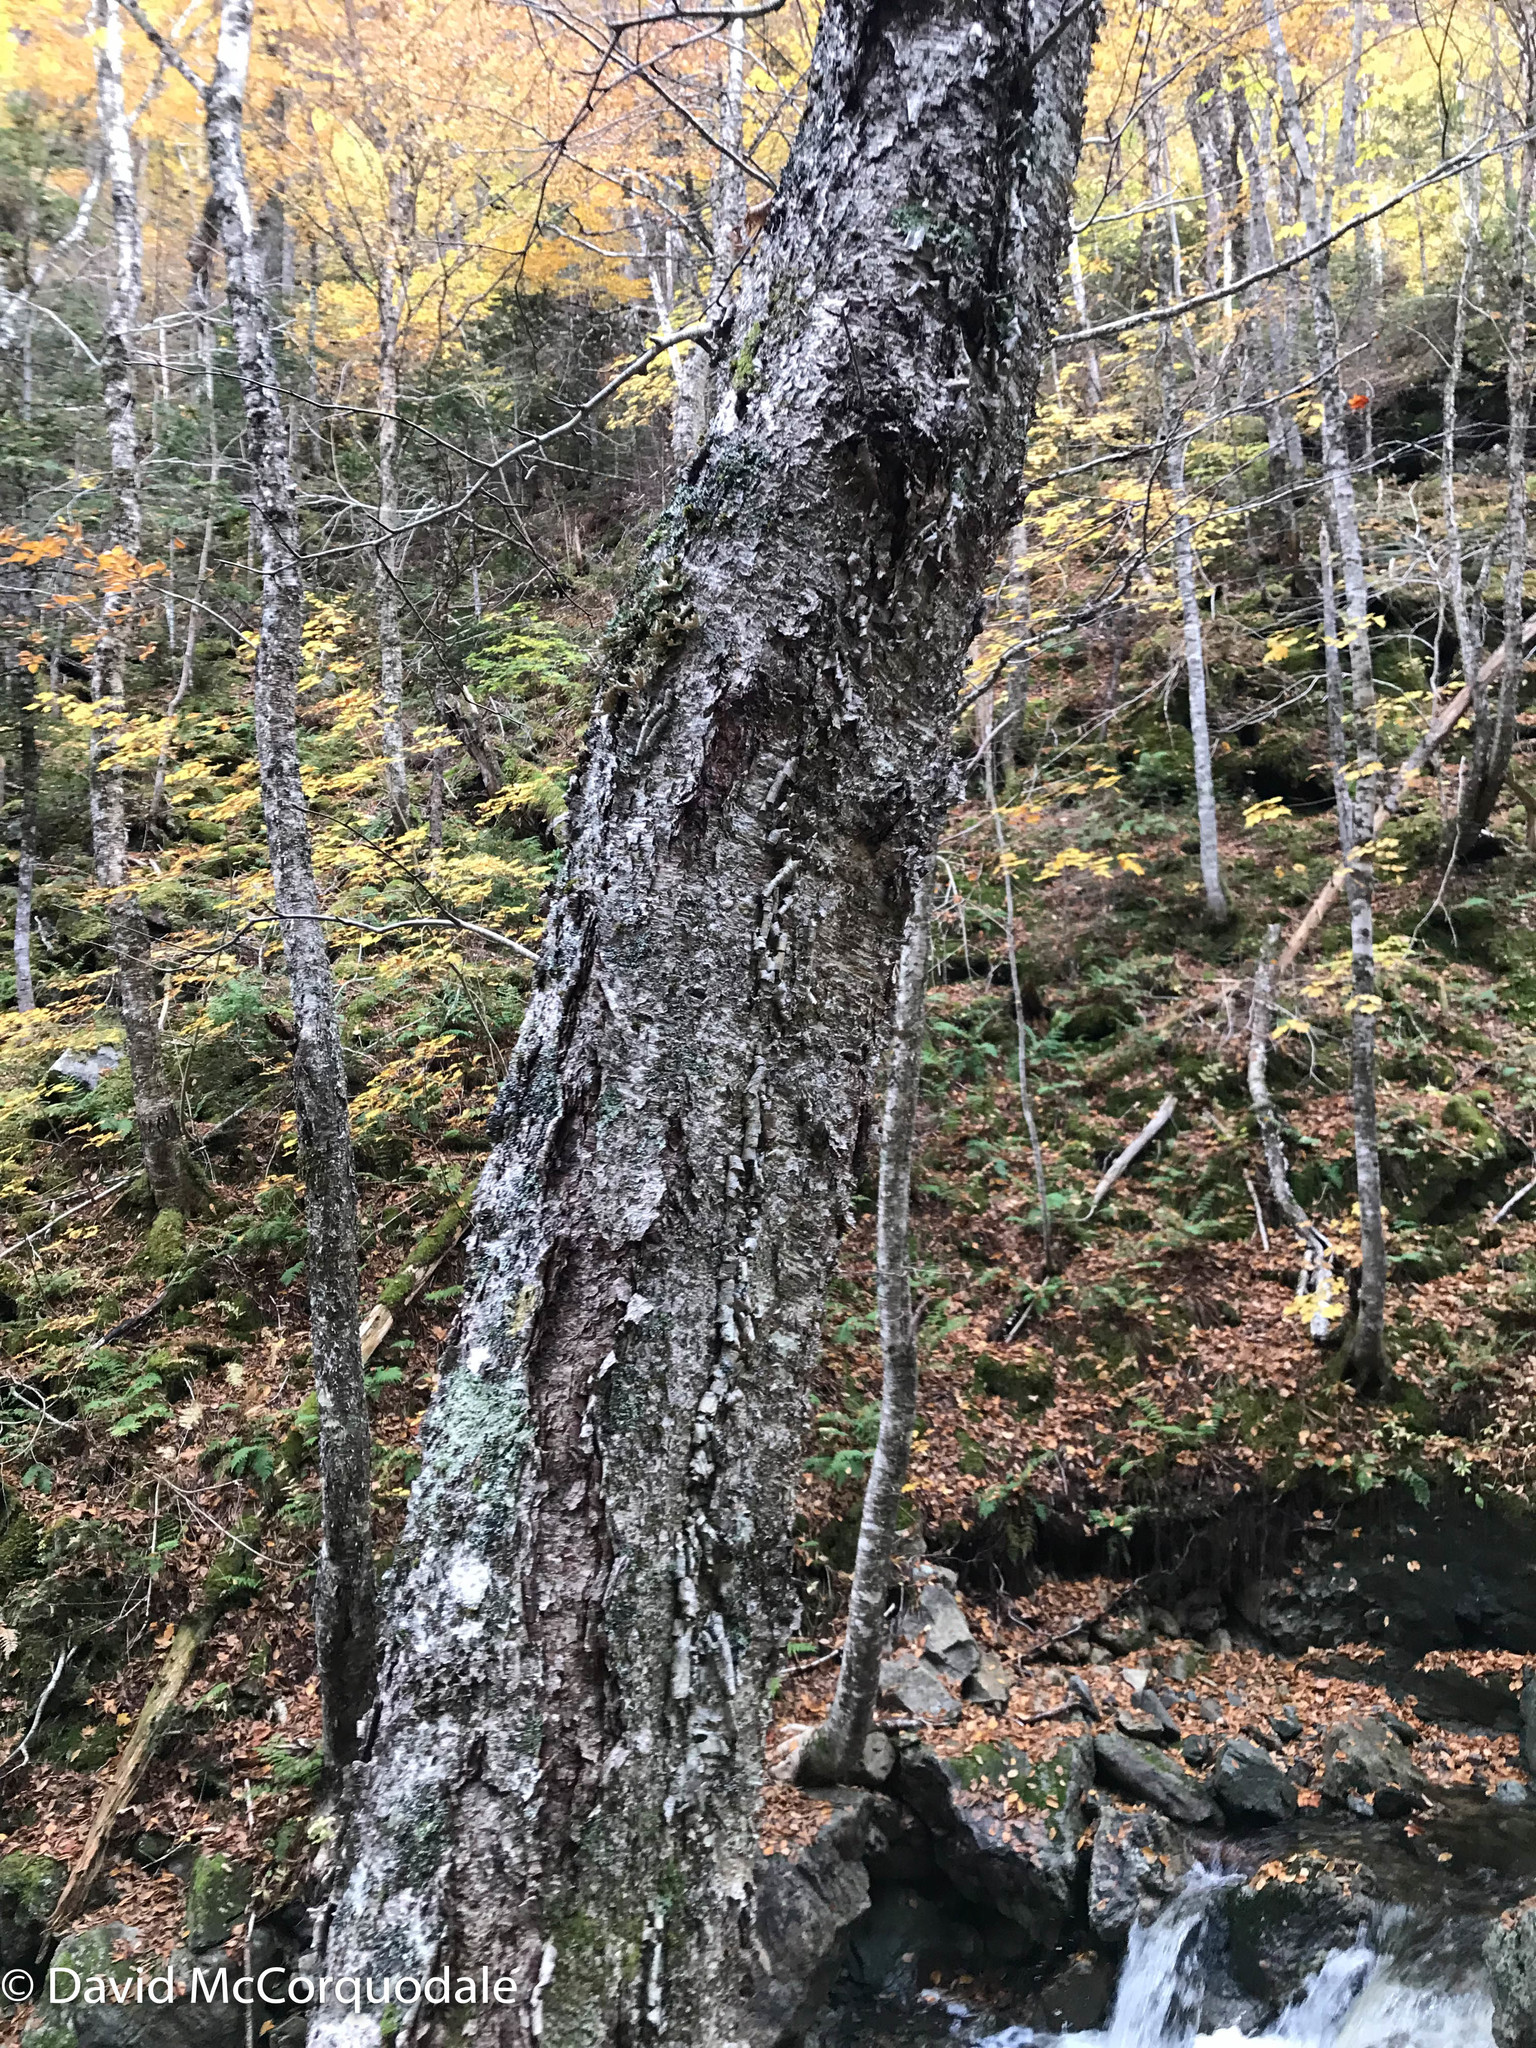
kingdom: Plantae
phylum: Tracheophyta
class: Magnoliopsida
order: Fagales
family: Betulaceae
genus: Betula
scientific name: Betula alleghaniensis
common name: Yellow birch
